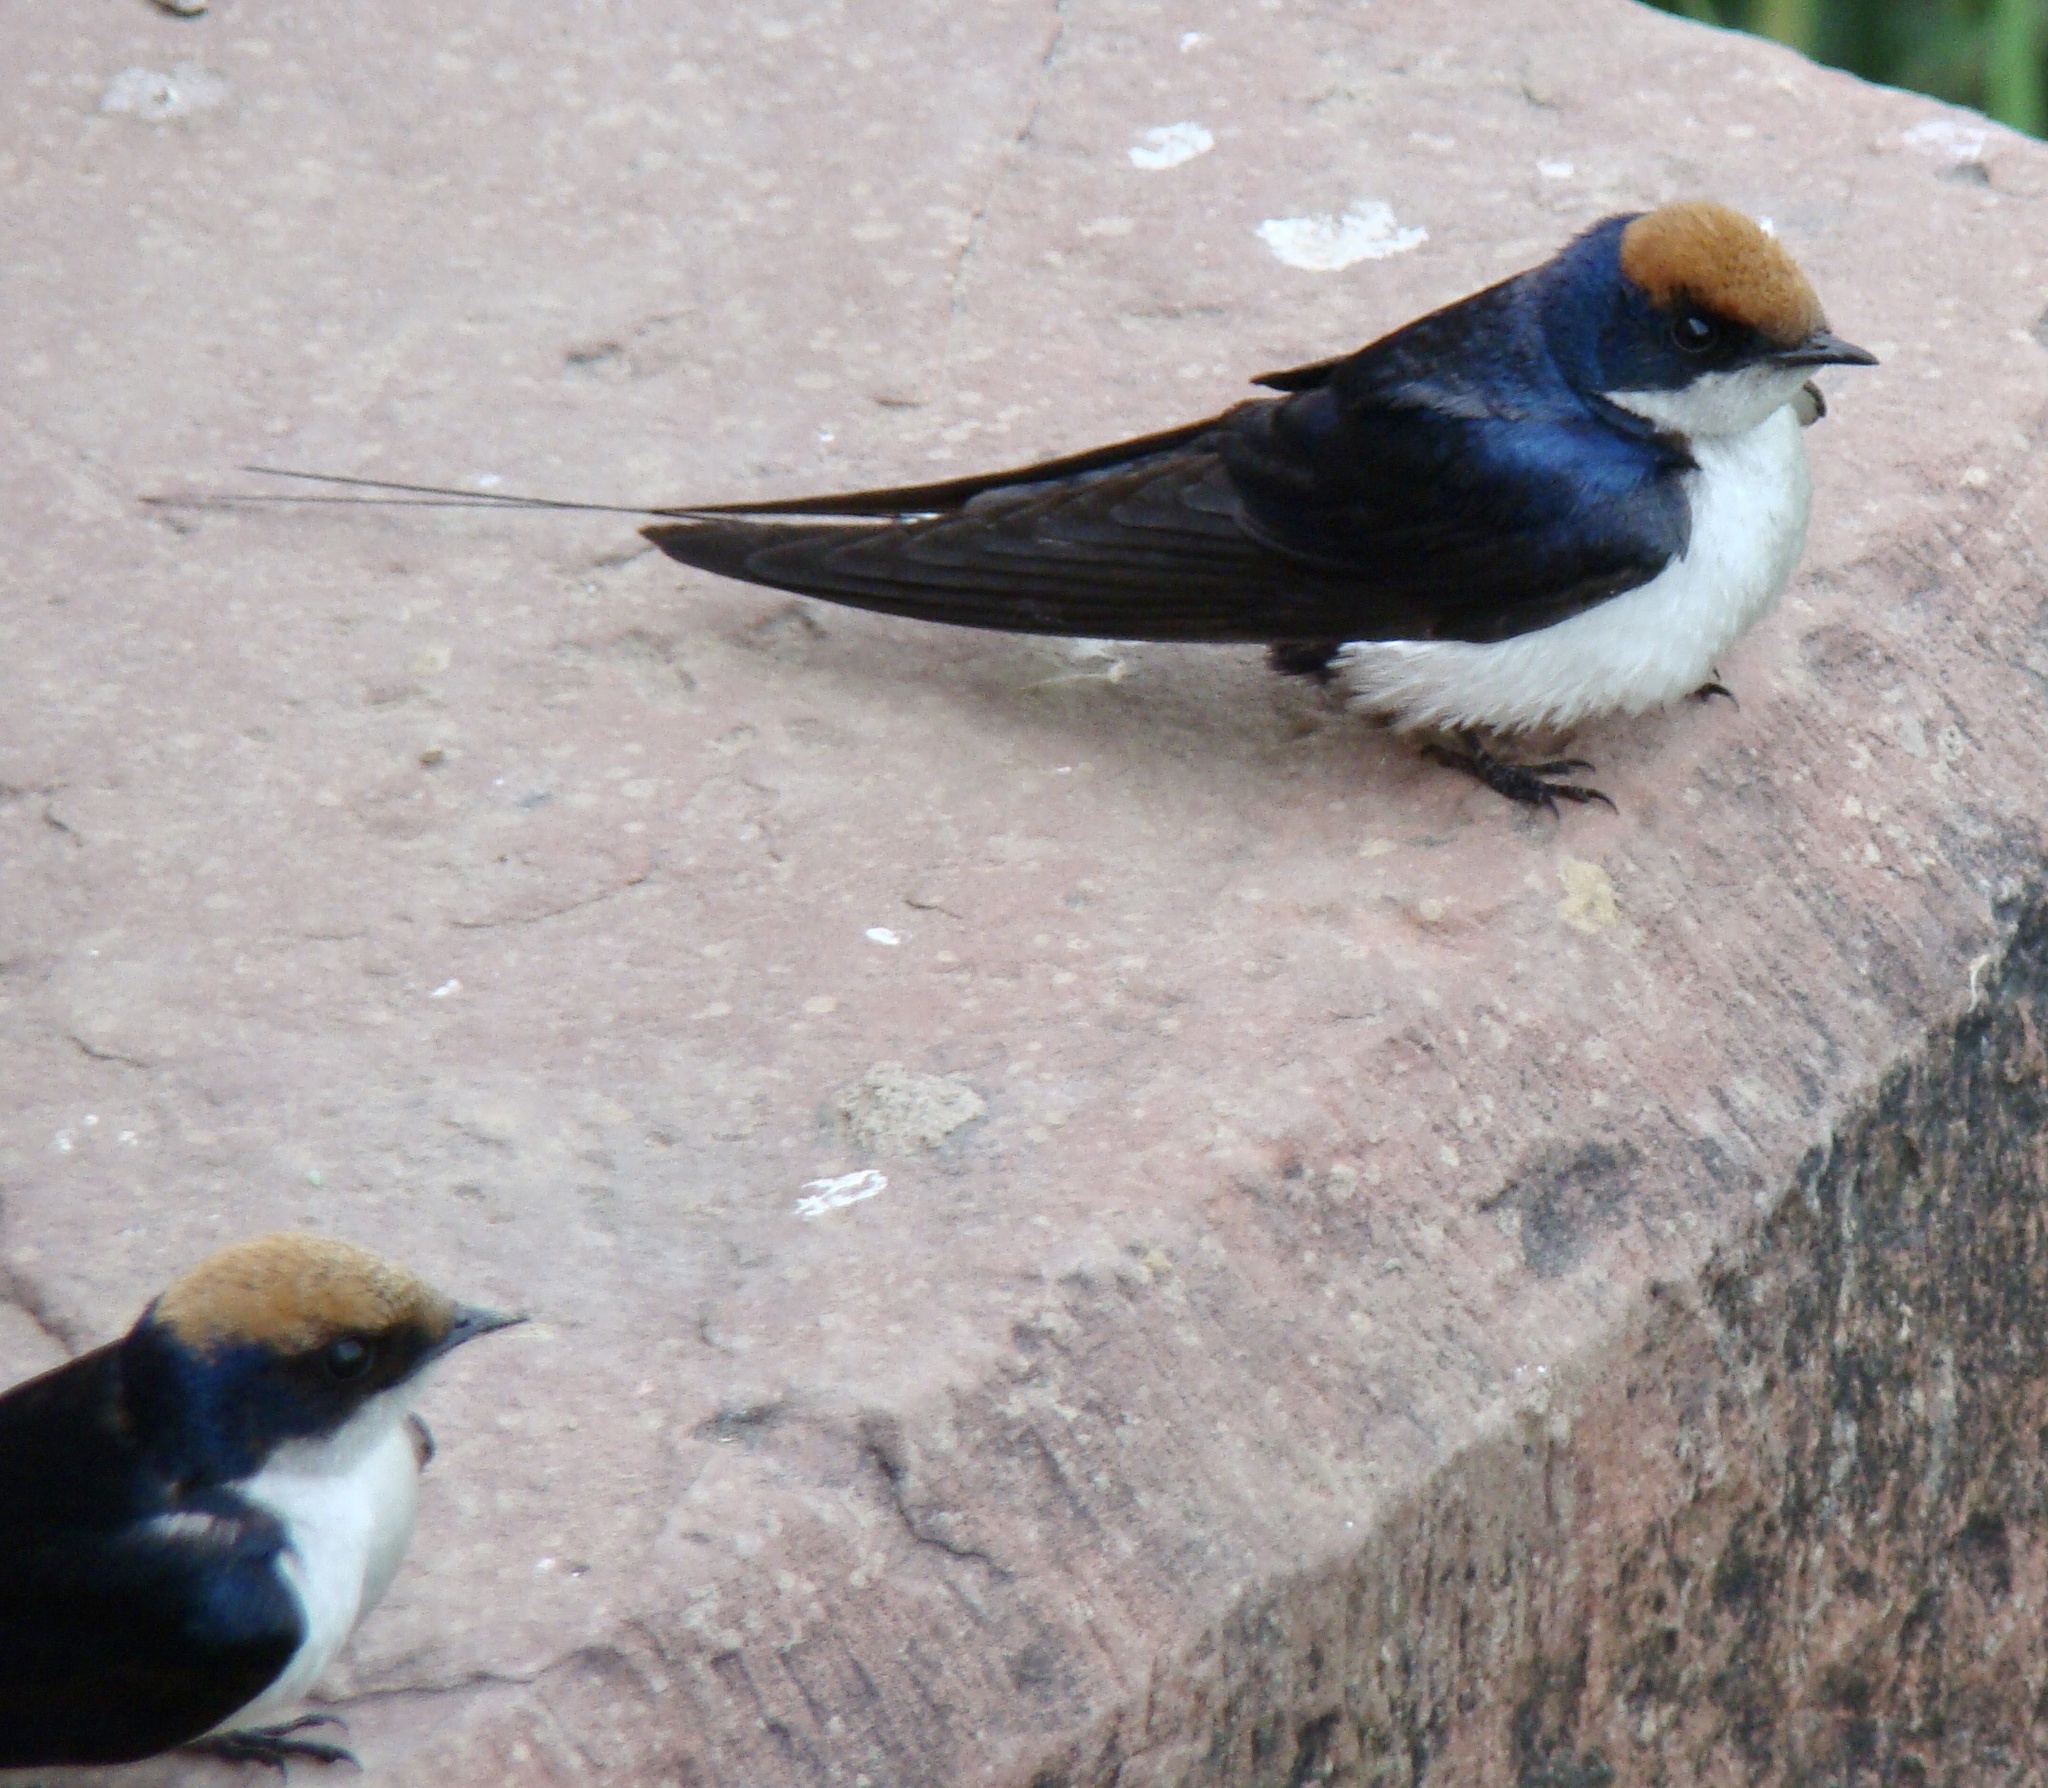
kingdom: Animalia
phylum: Chordata
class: Aves
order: Passeriformes
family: Hirundinidae
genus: Hirundo
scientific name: Hirundo smithii
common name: Wire-tailed swallow
